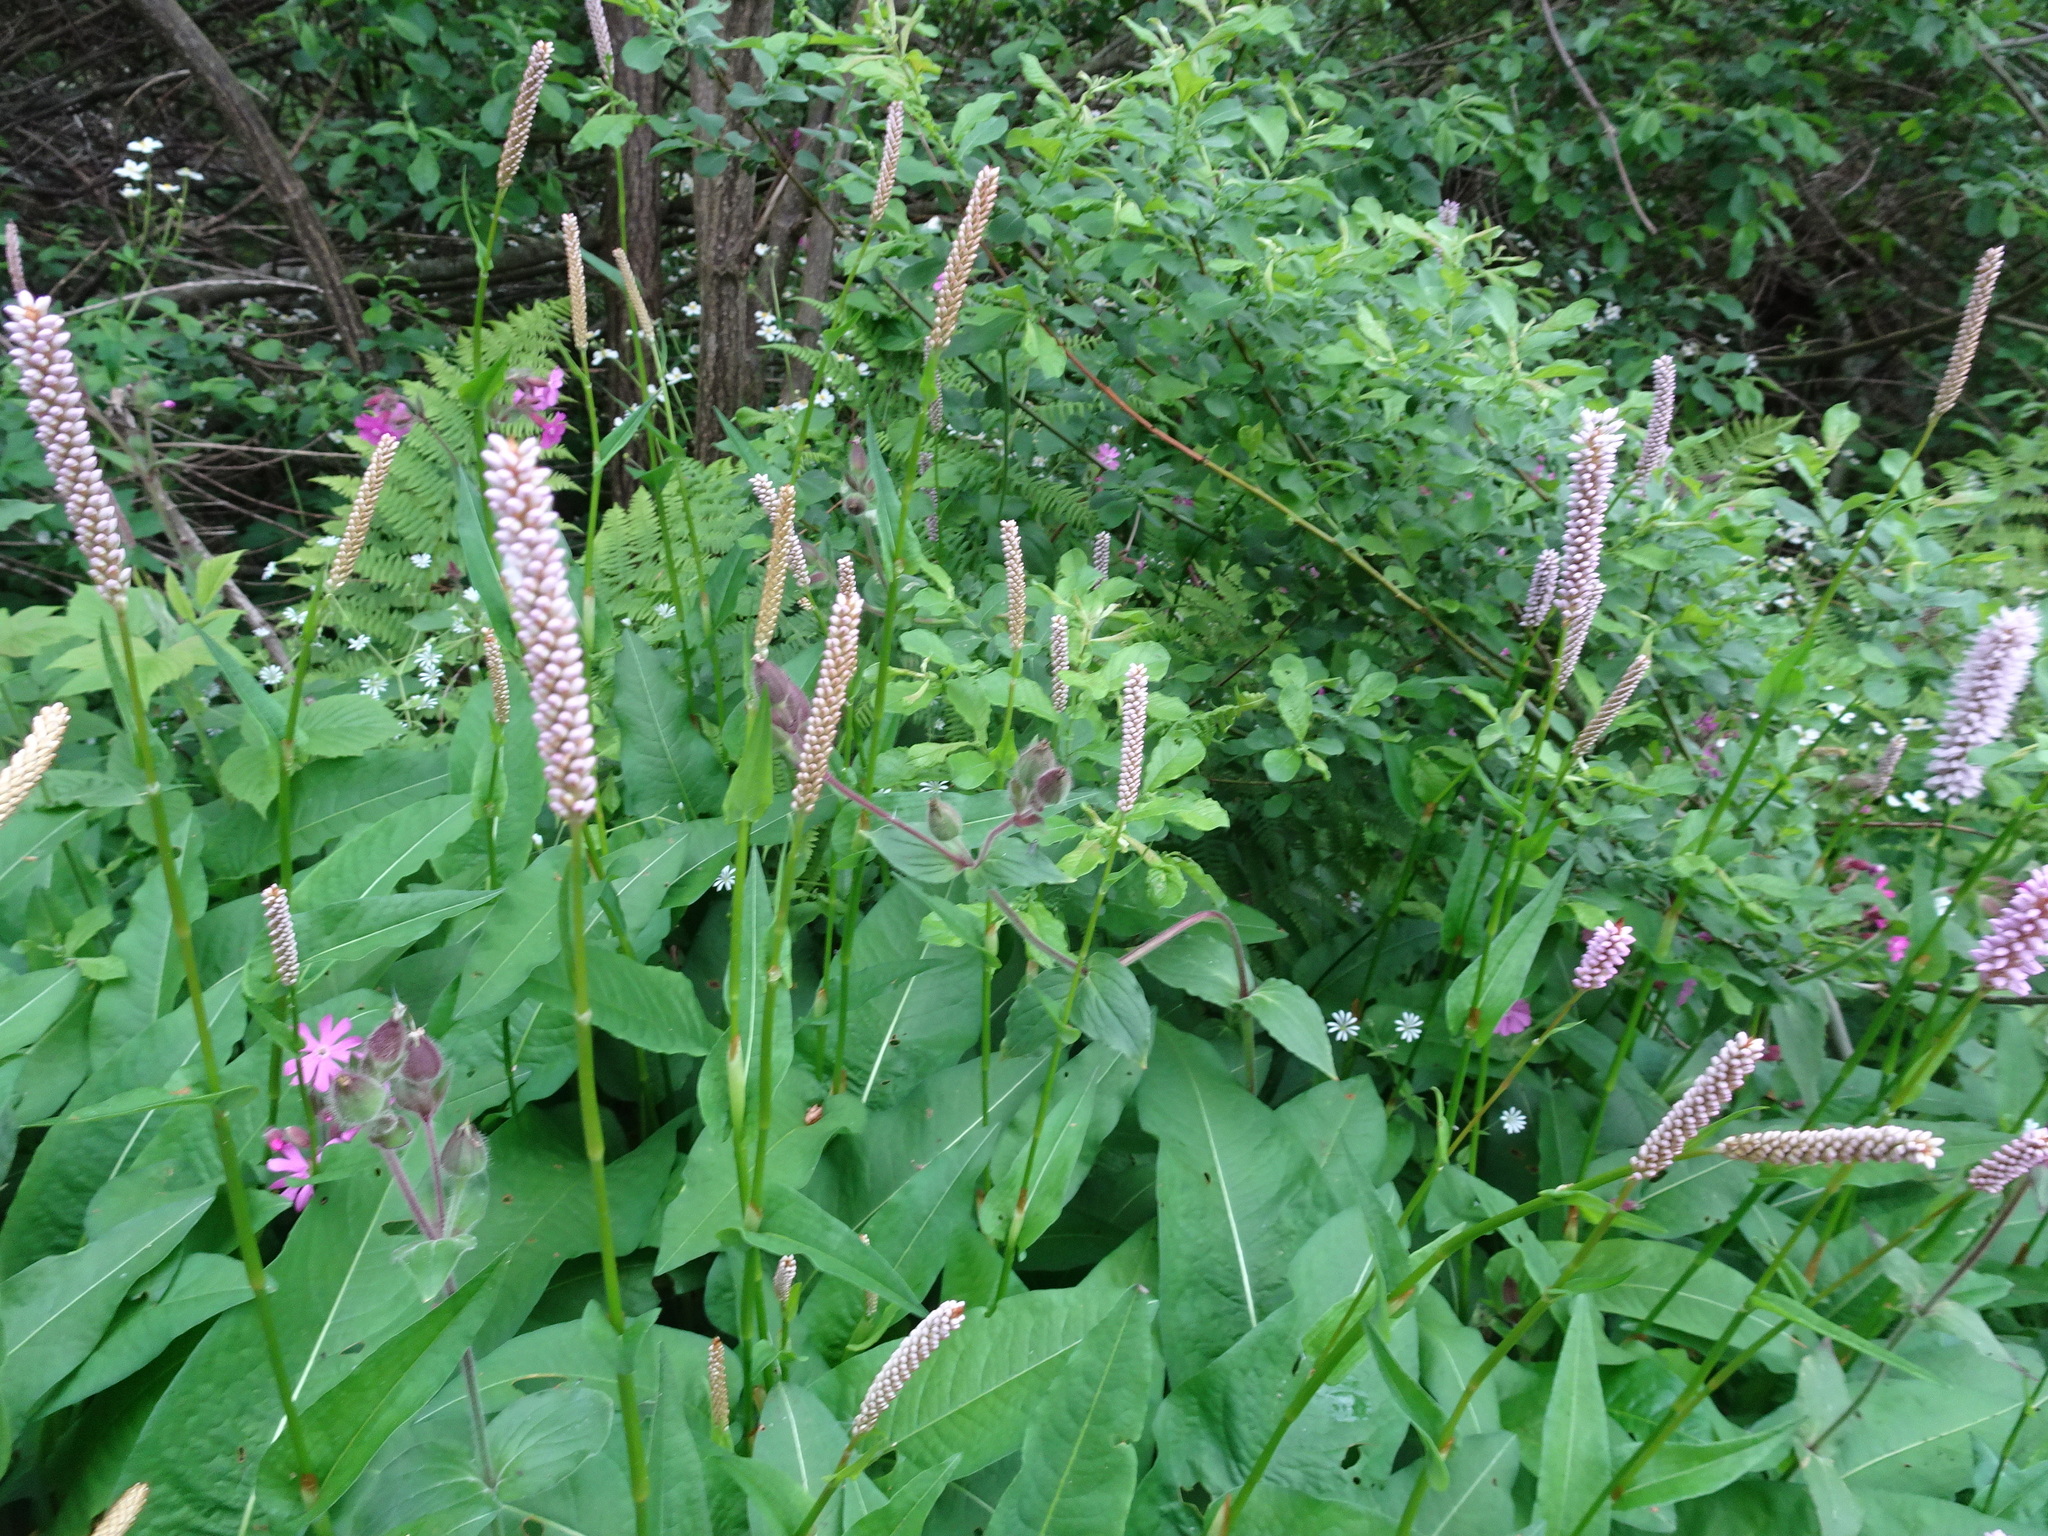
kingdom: Plantae
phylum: Tracheophyta
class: Magnoliopsida
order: Caryophyllales
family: Polygonaceae
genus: Bistorta
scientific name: Bistorta officinalis
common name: Common bistort
